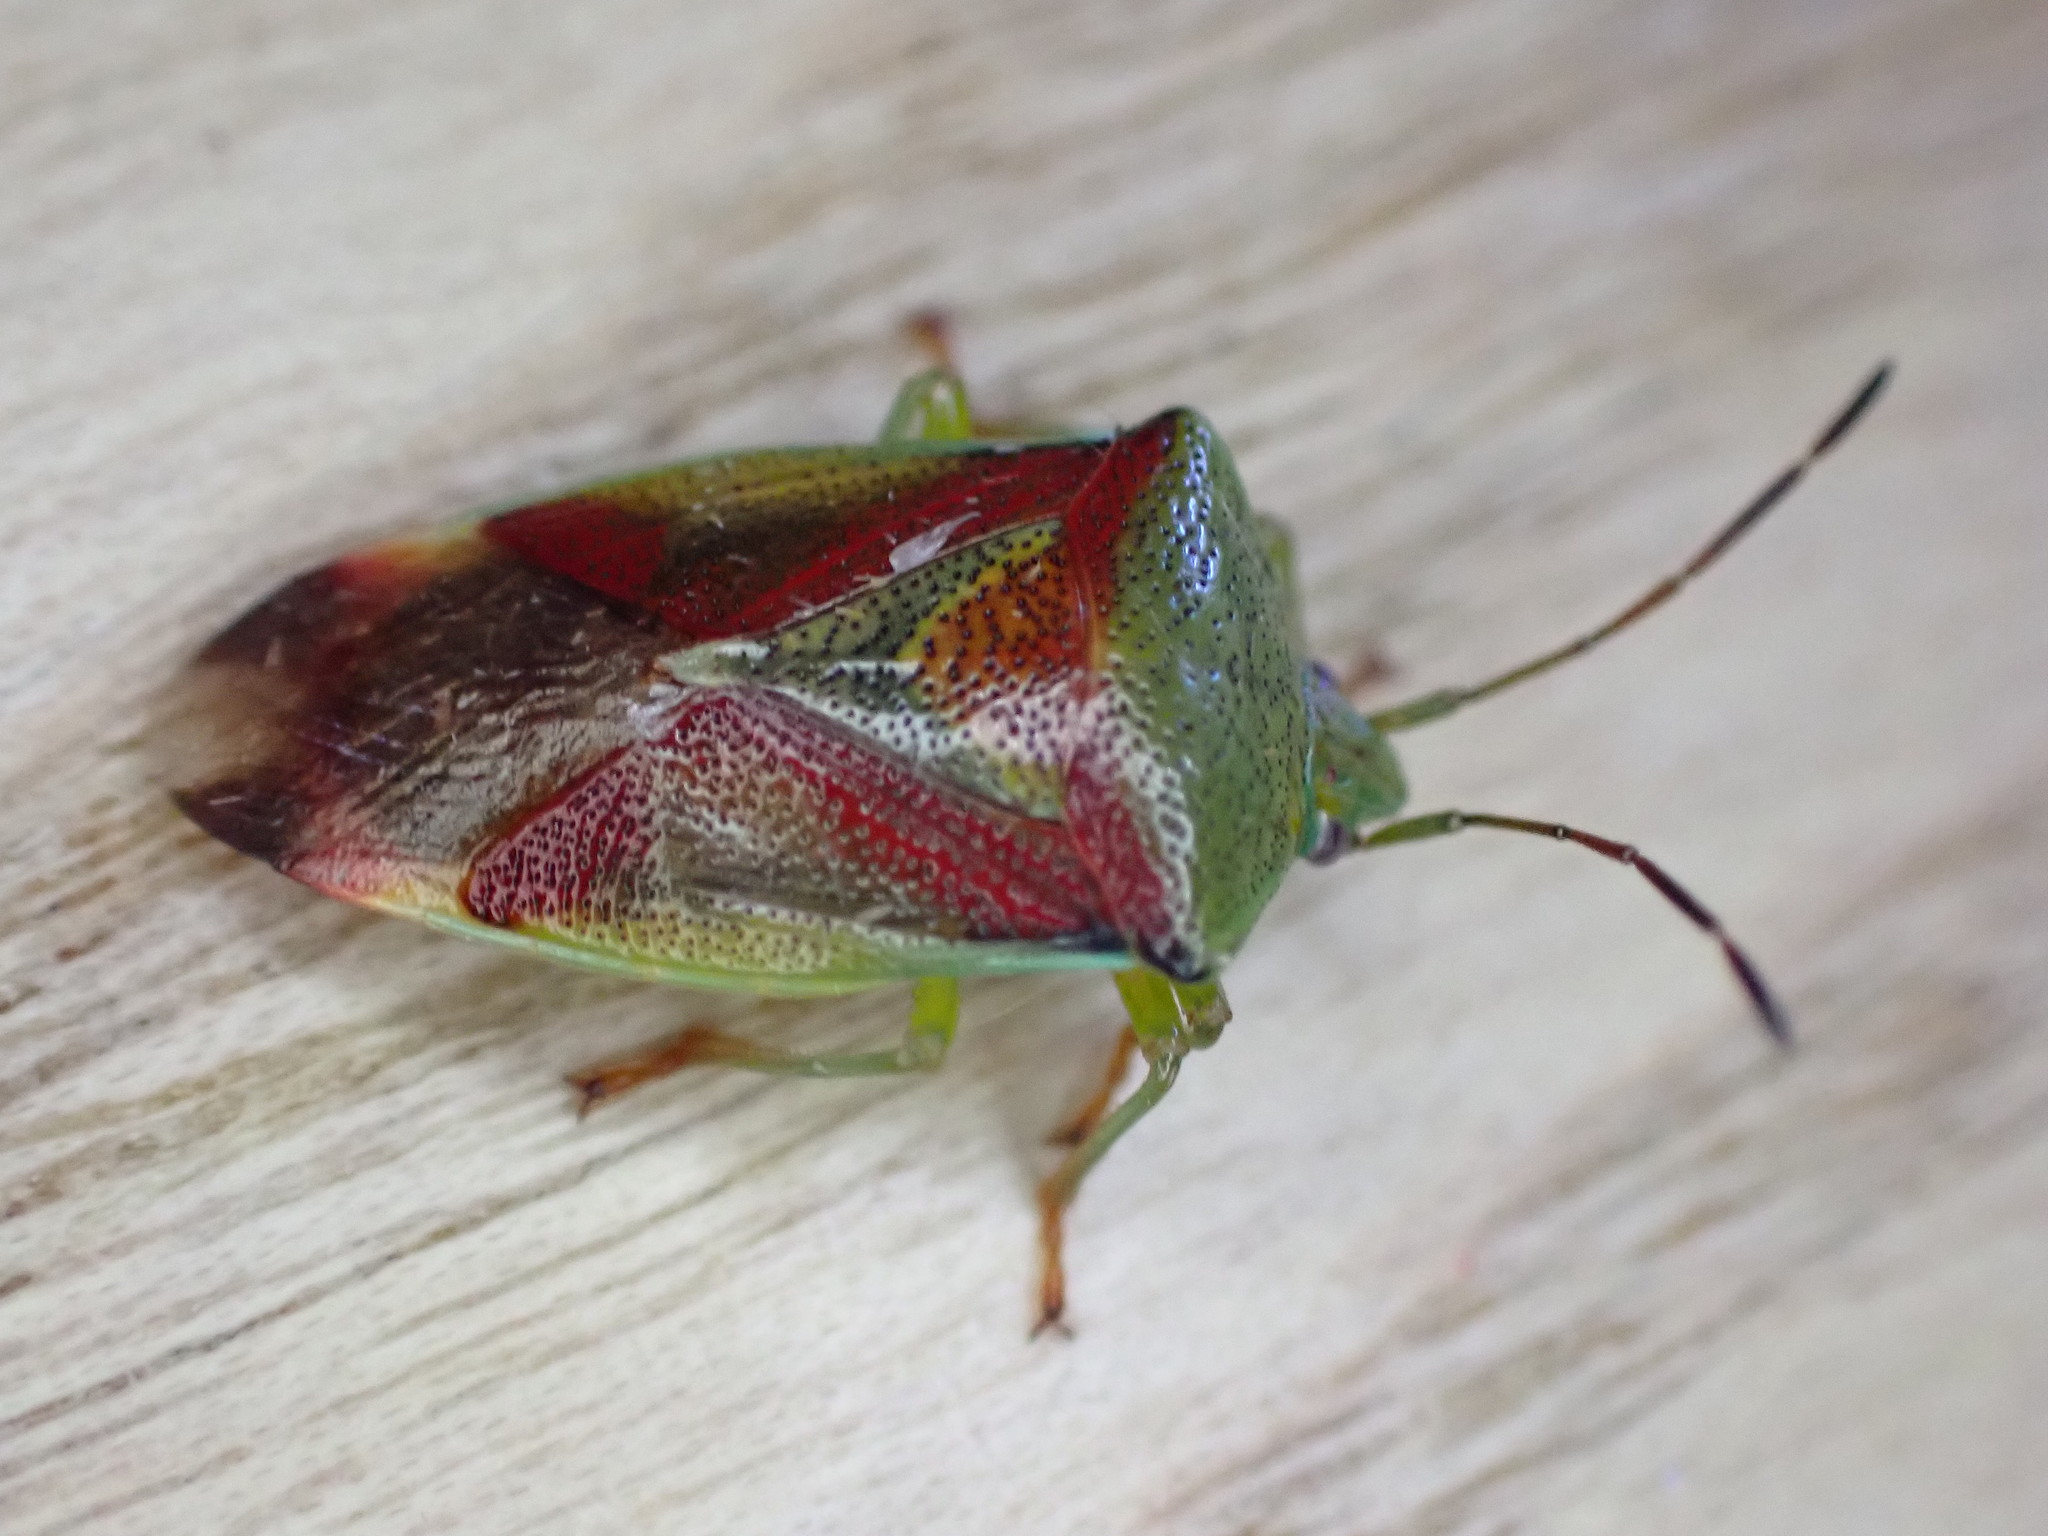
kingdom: Animalia
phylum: Arthropoda
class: Insecta
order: Hemiptera
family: Acanthosomatidae
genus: Elasmostethus
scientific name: Elasmostethus interstinctus
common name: Birch shieldbug
